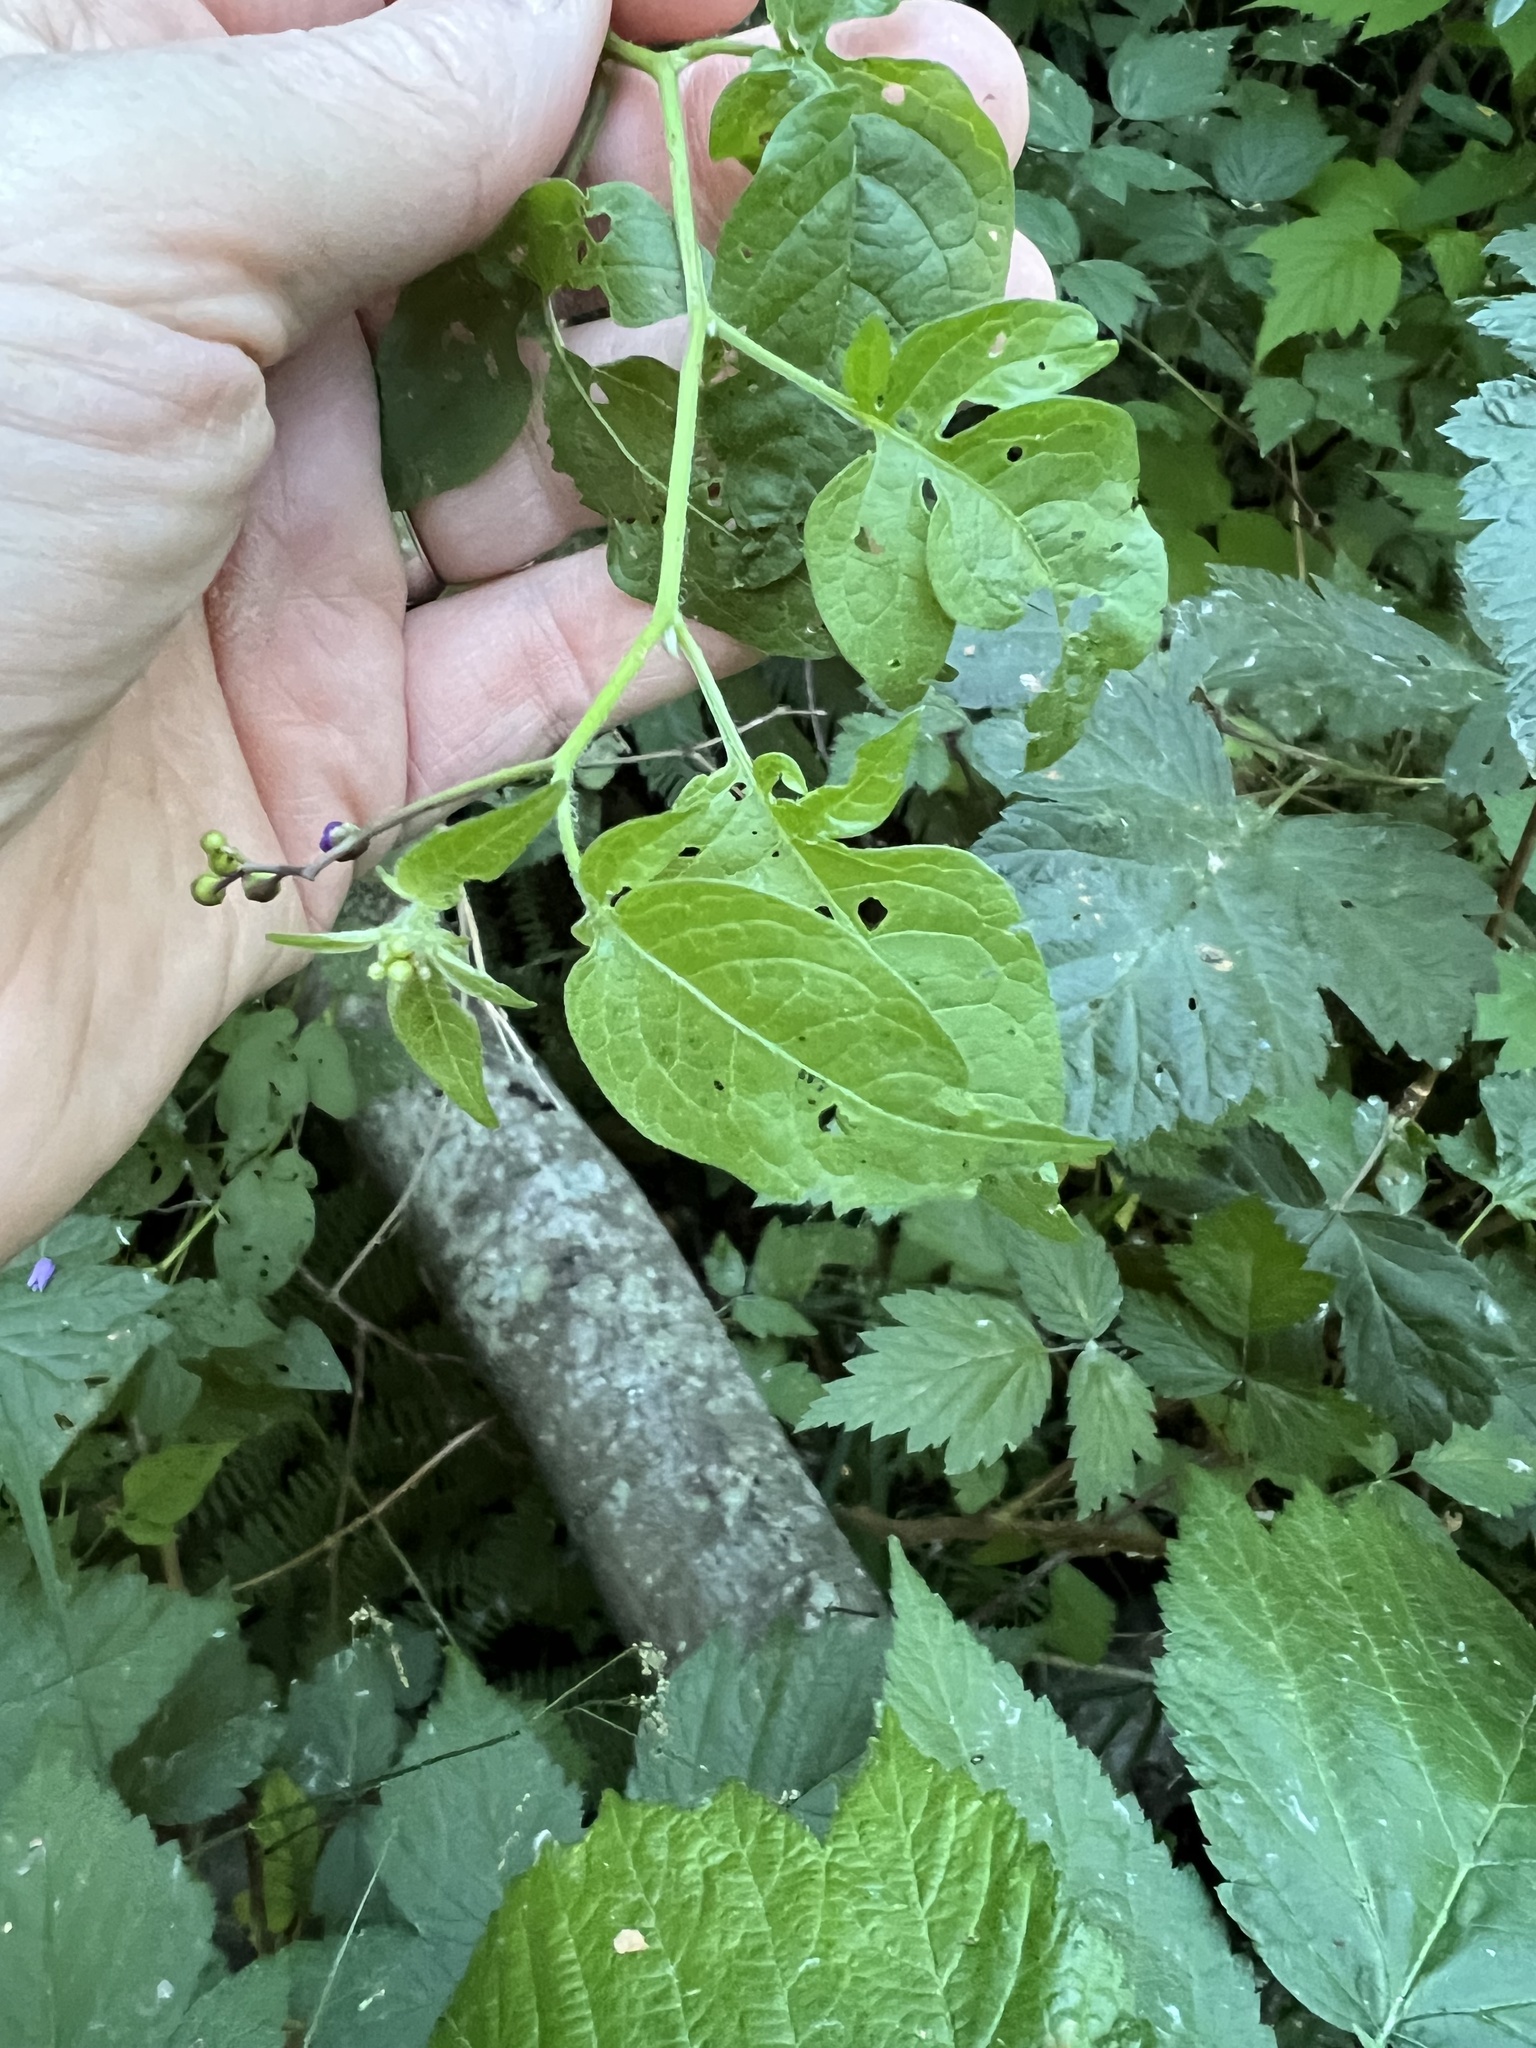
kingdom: Plantae
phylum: Tracheophyta
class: Magnoliopsida
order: Solanales
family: Solanaceae
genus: Solanum
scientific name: Solanum dulcamara
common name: Climbing nightshade
